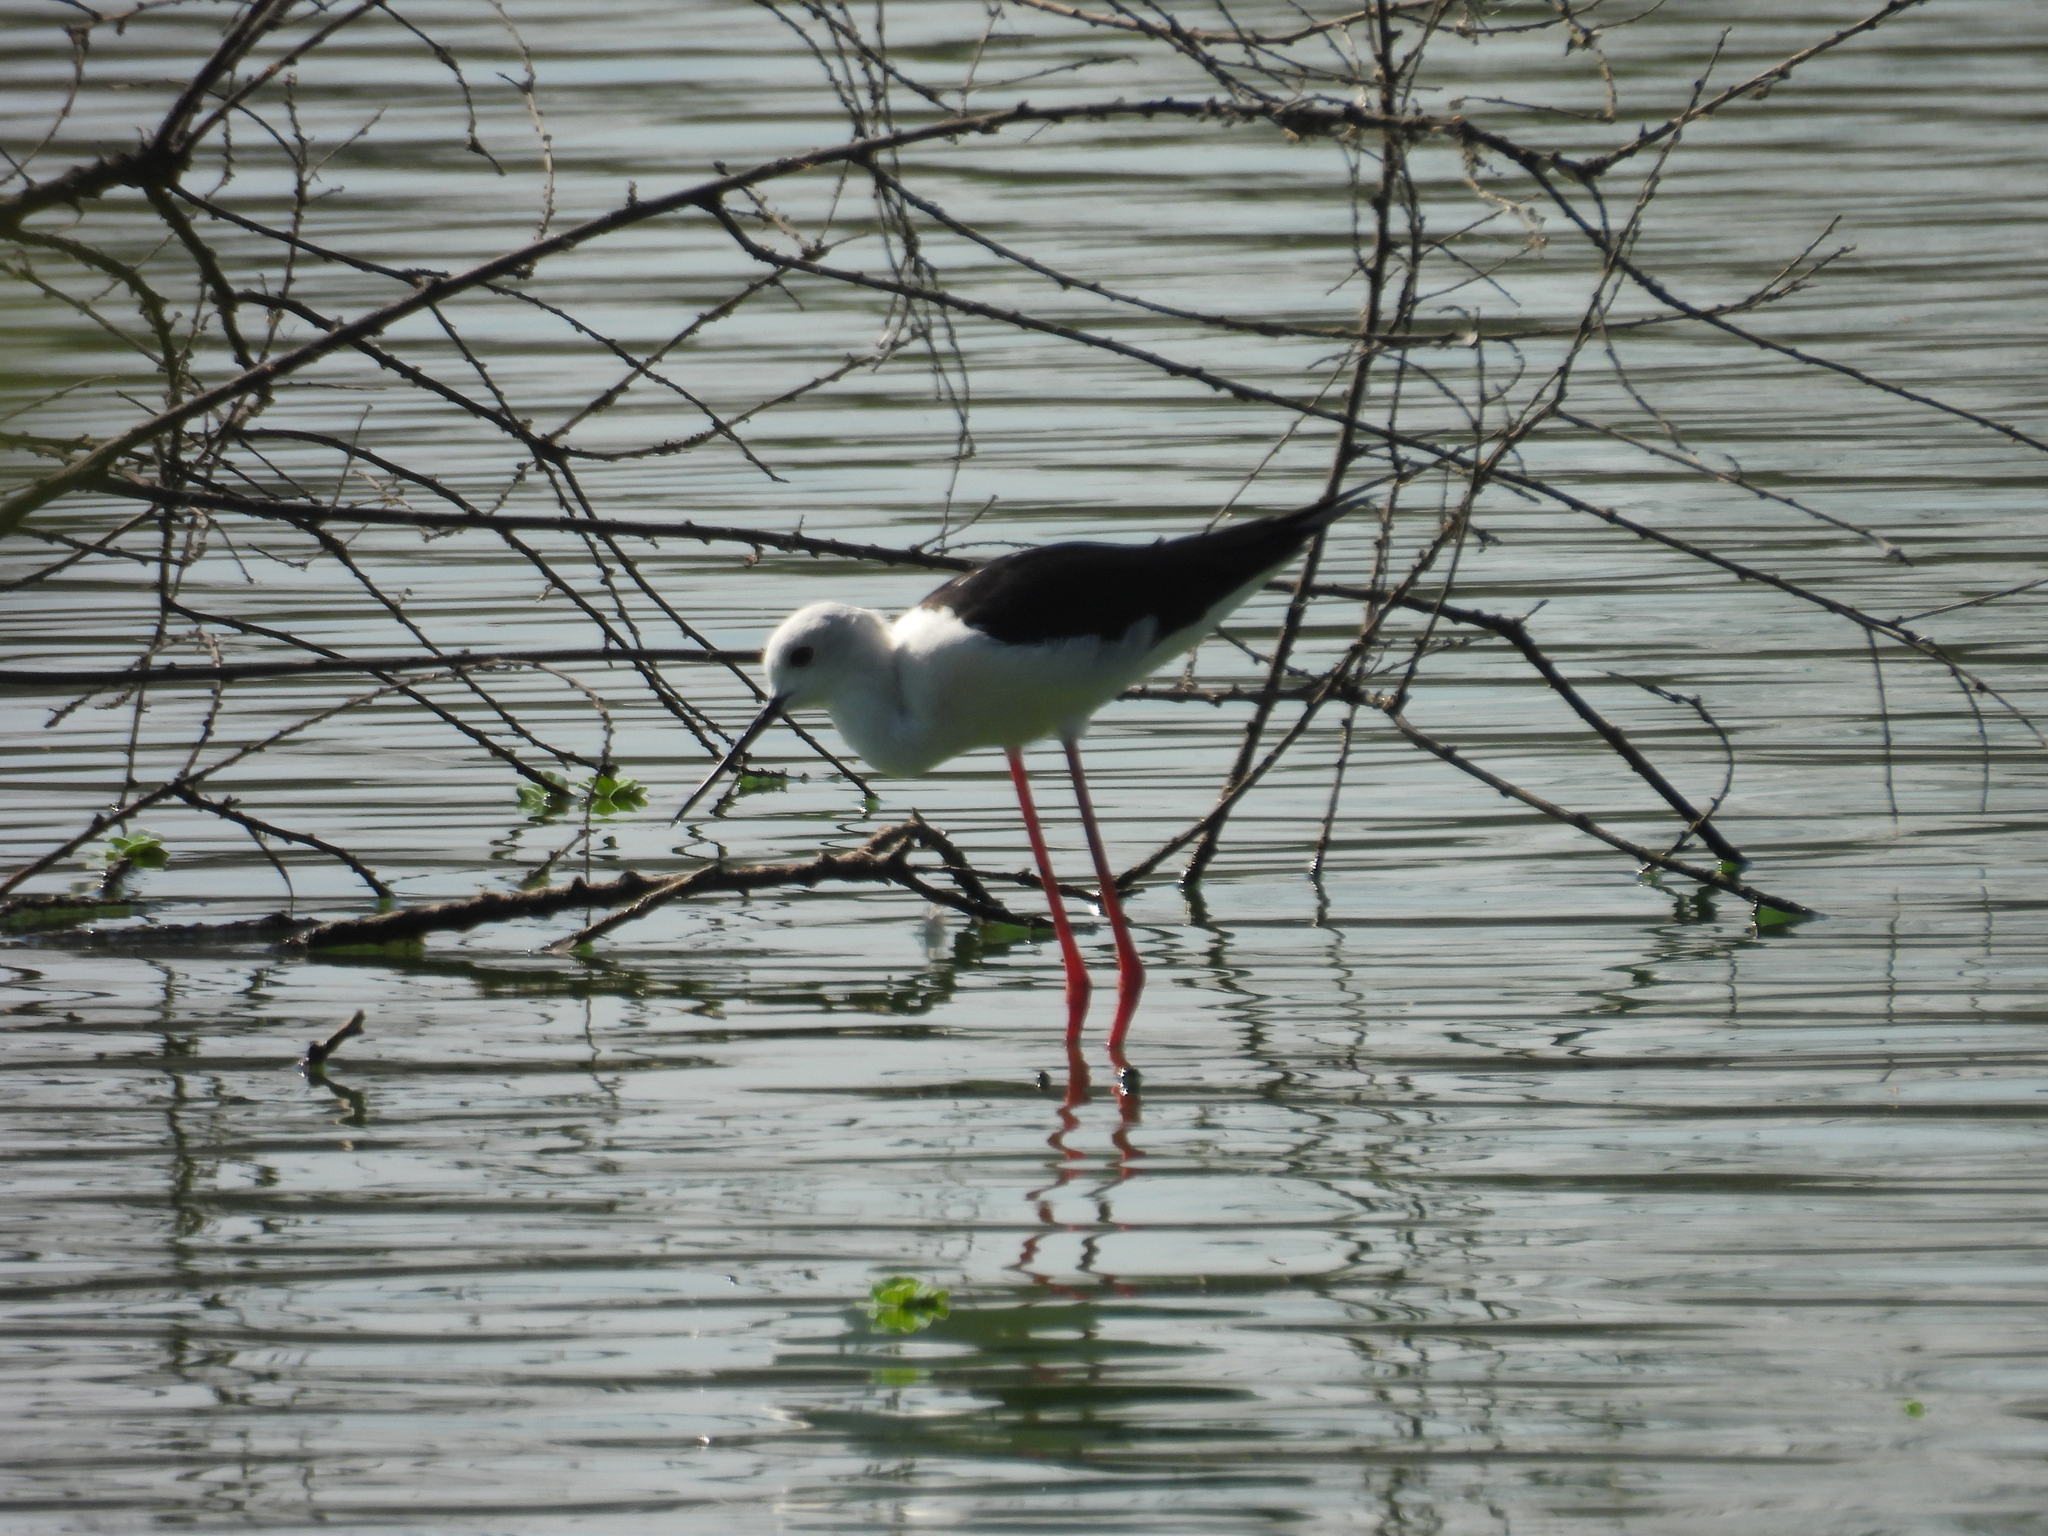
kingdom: Animalia
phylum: Chordata
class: Aves
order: Charadriiformes
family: Recurvirostridae
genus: Himantopus
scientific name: Himantopus himantopus
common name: Black-winged stilt
